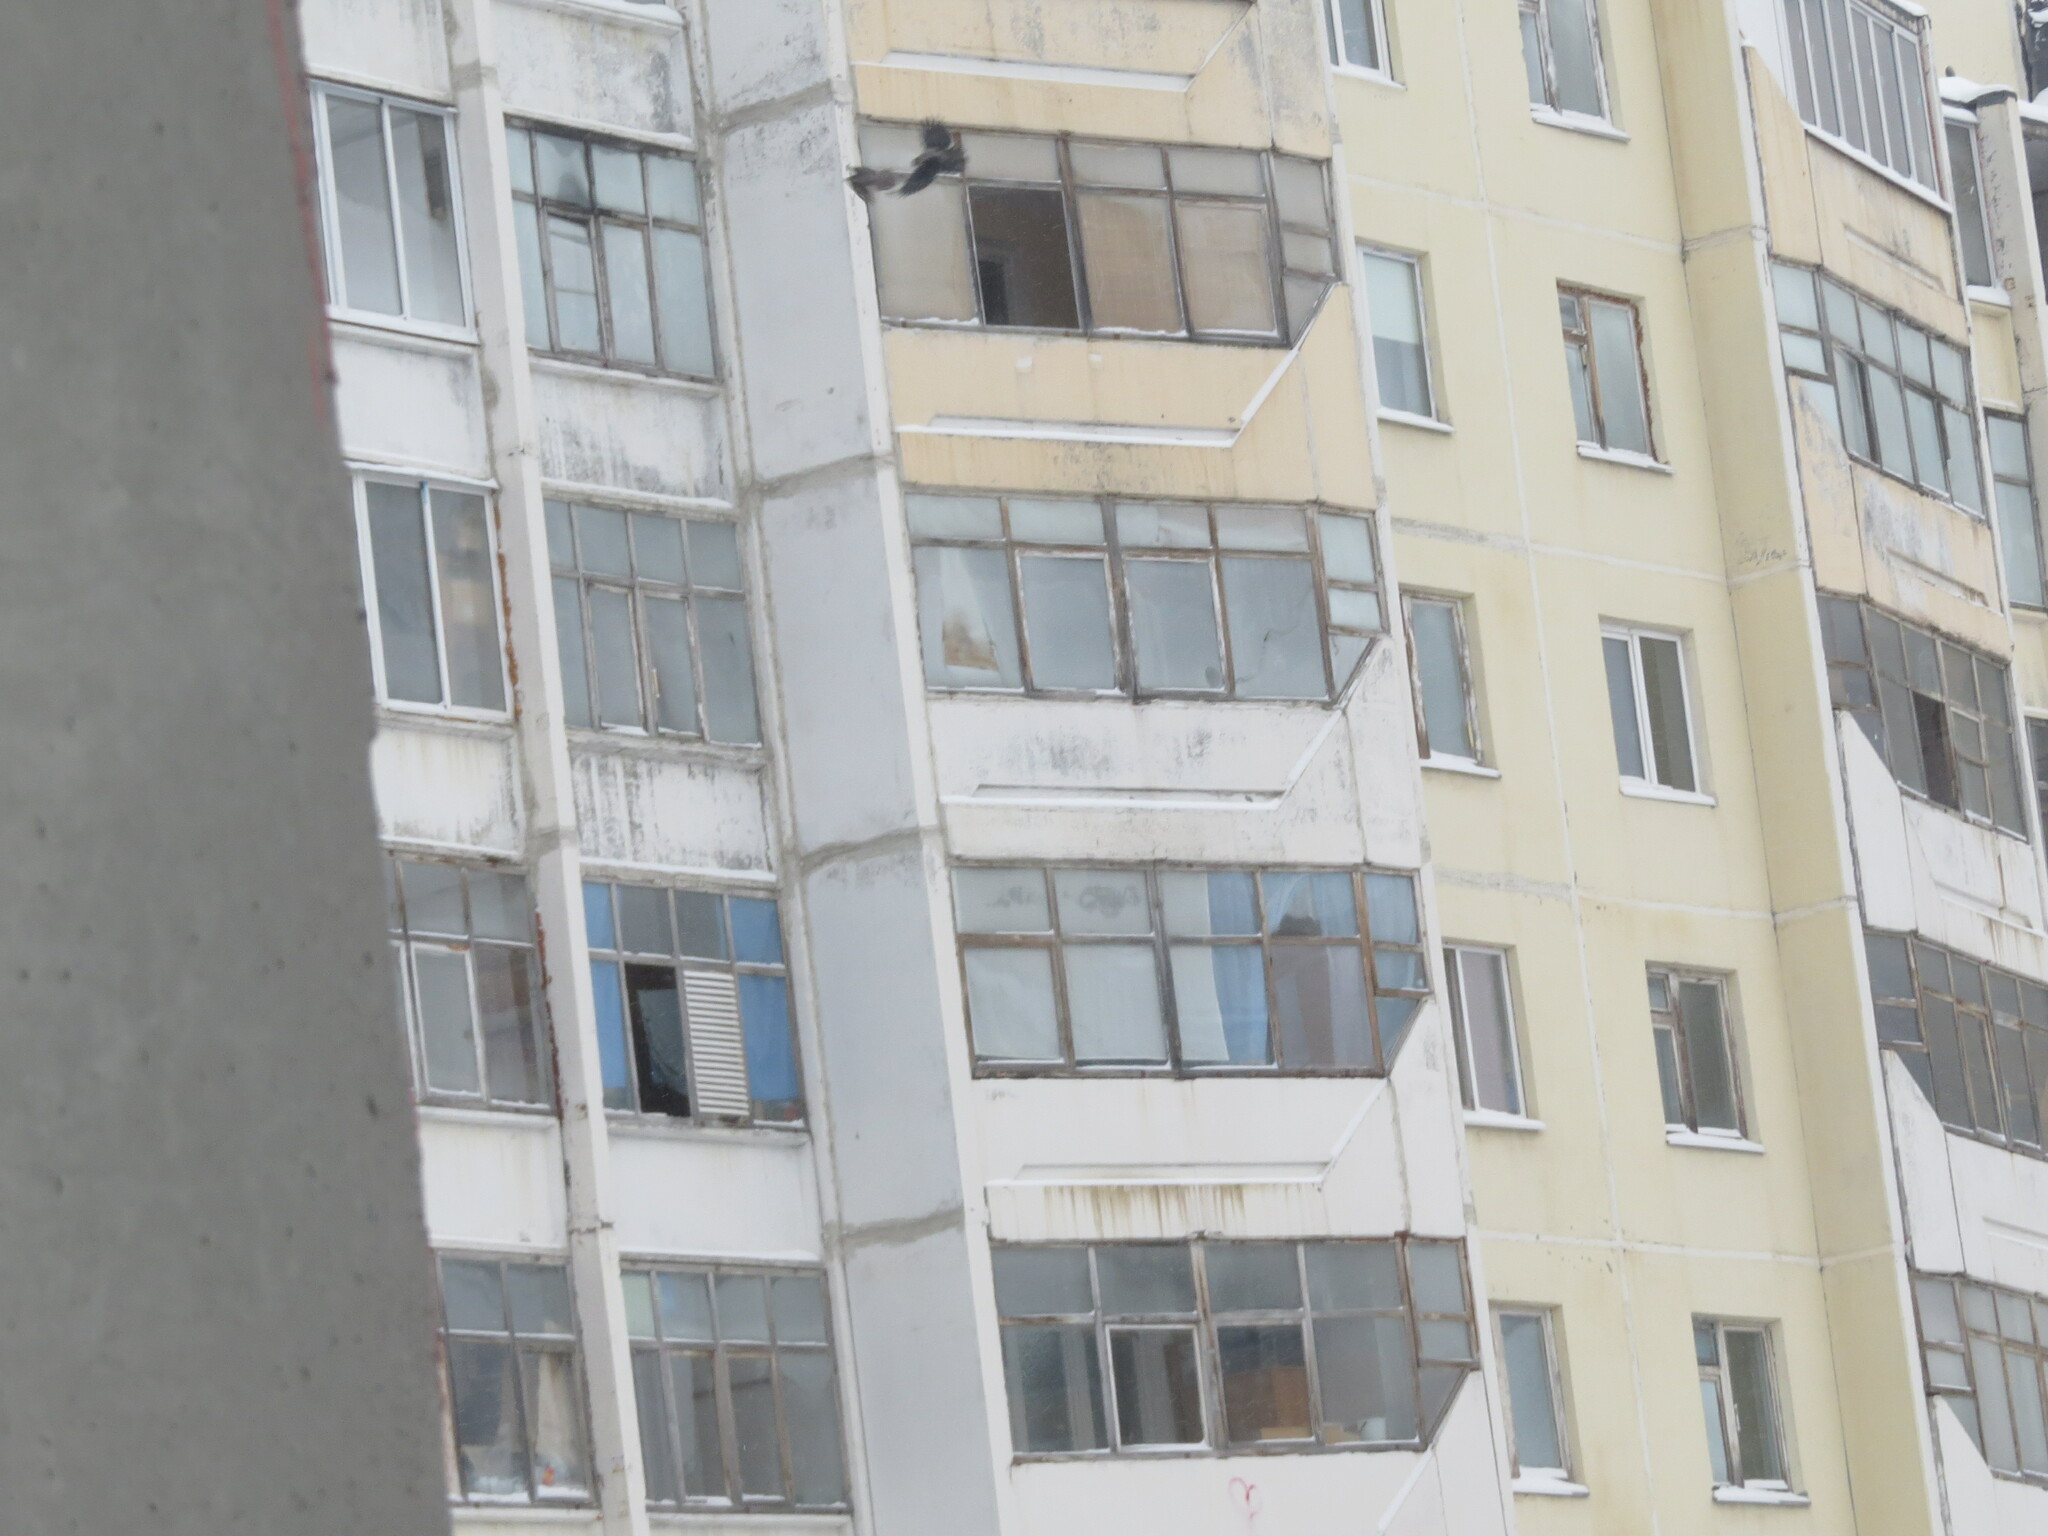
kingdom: Animalia
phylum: Chordata
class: Aves
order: Accipitriformes
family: Accipitridae
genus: Accipiter
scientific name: Accipiter nisus
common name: Eurasian sparrowhawk
